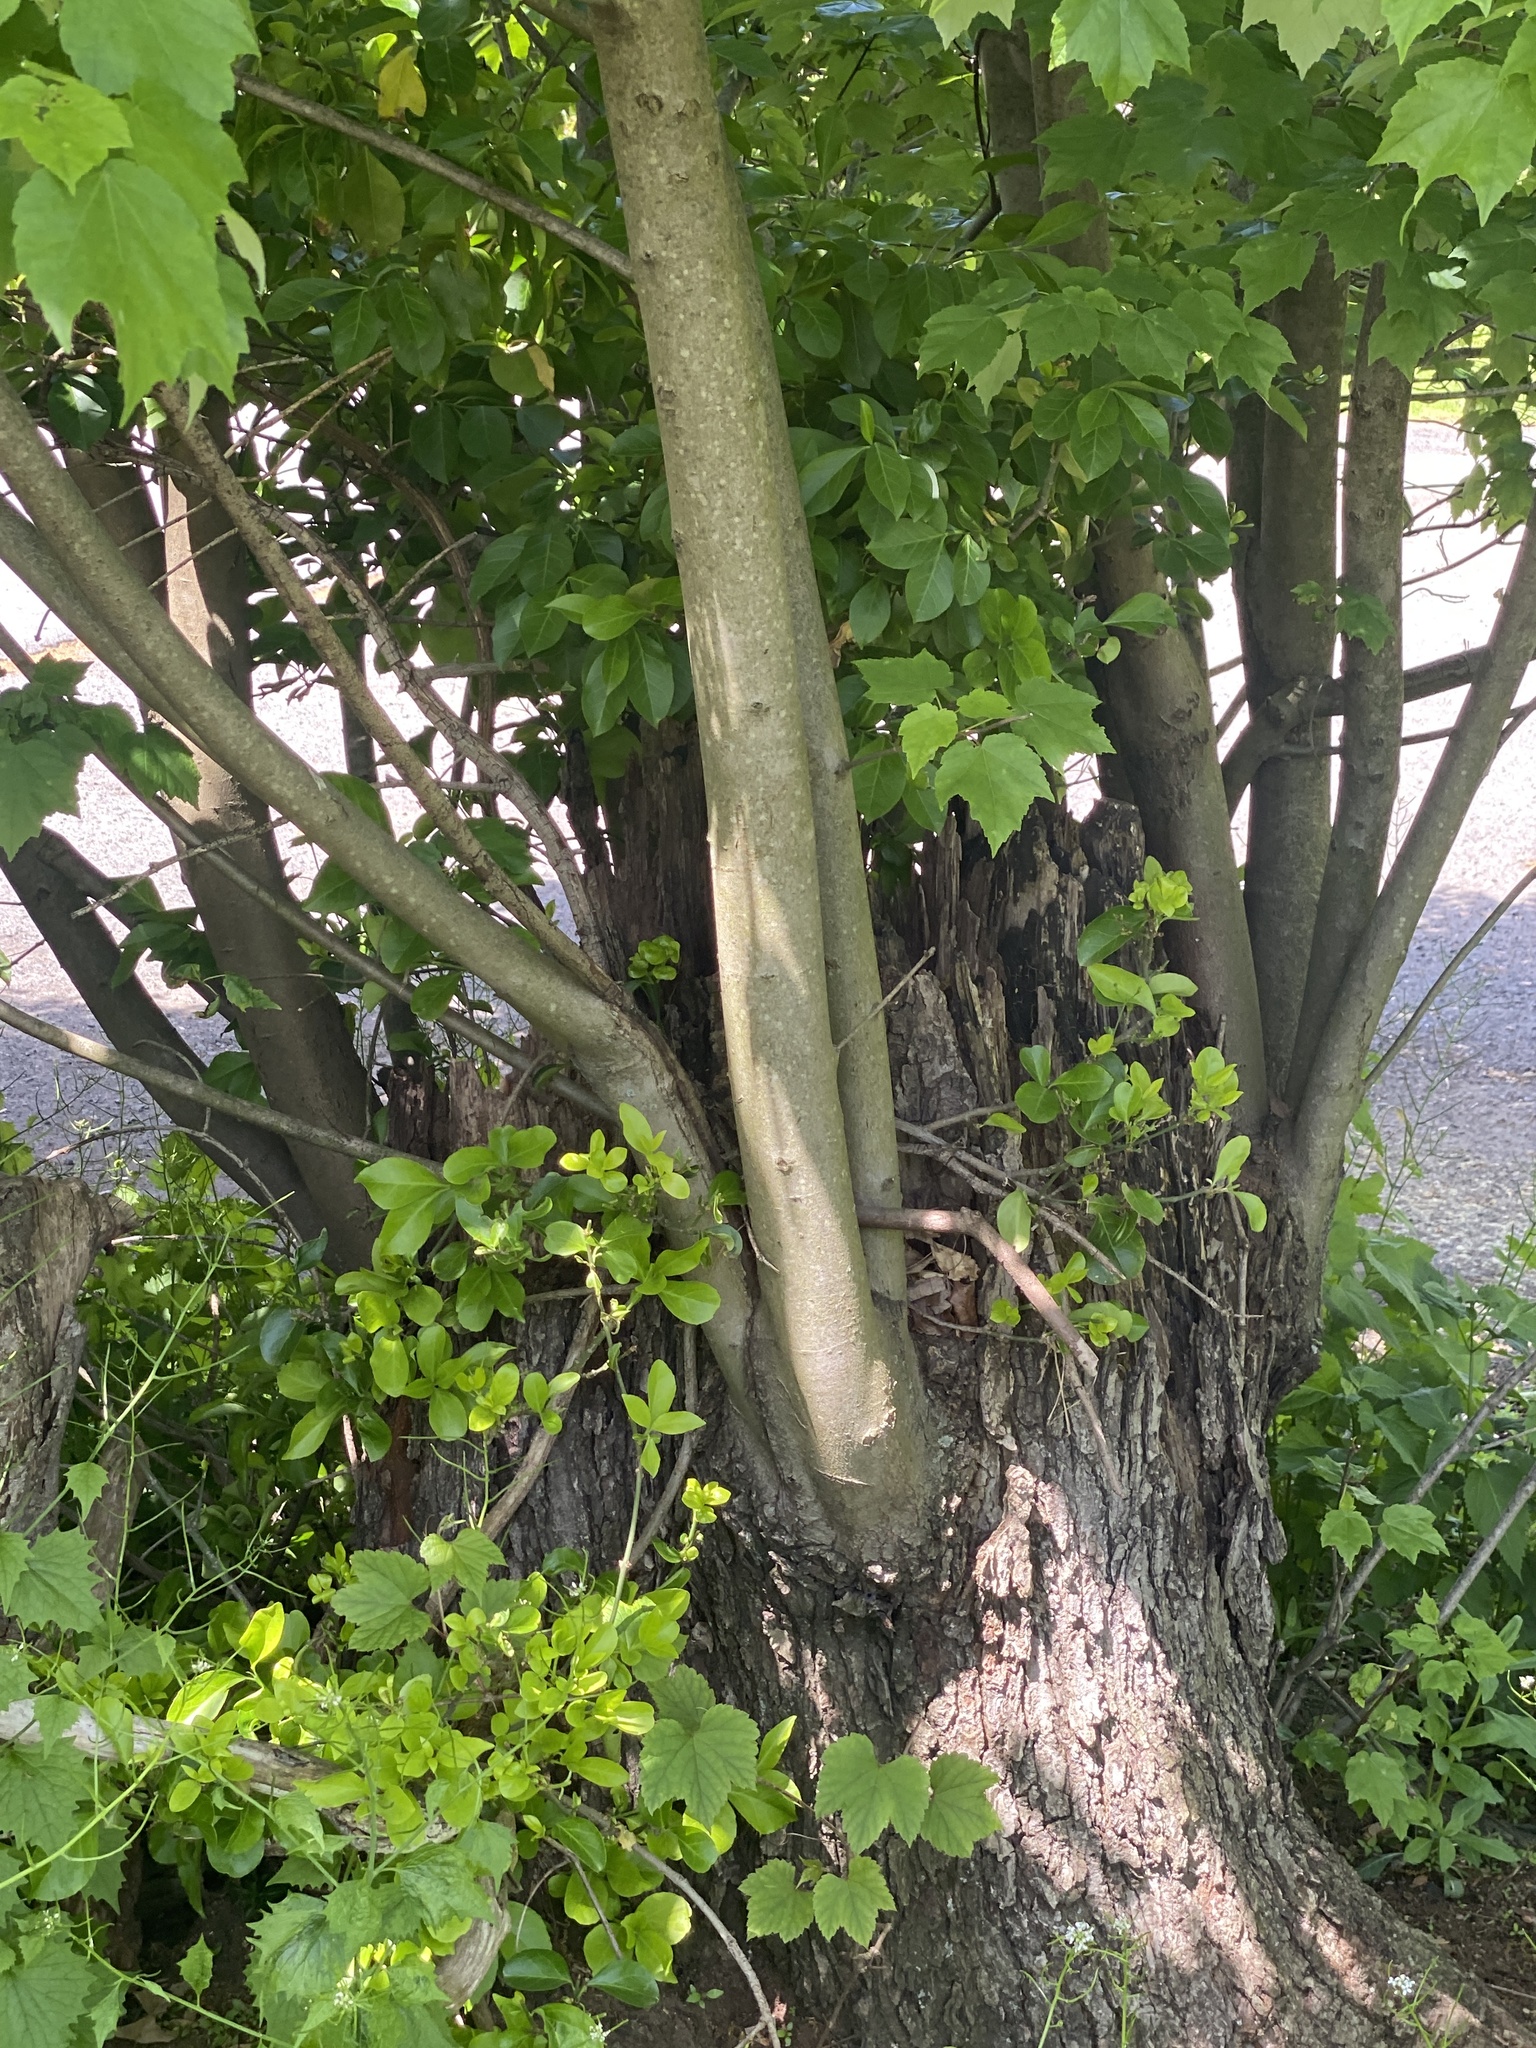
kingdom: Plantae
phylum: Tracheophyta
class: Magnoliopsida
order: Sapindales
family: Sapindaceae
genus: Acer
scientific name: Acer rubrum
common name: Red maple
